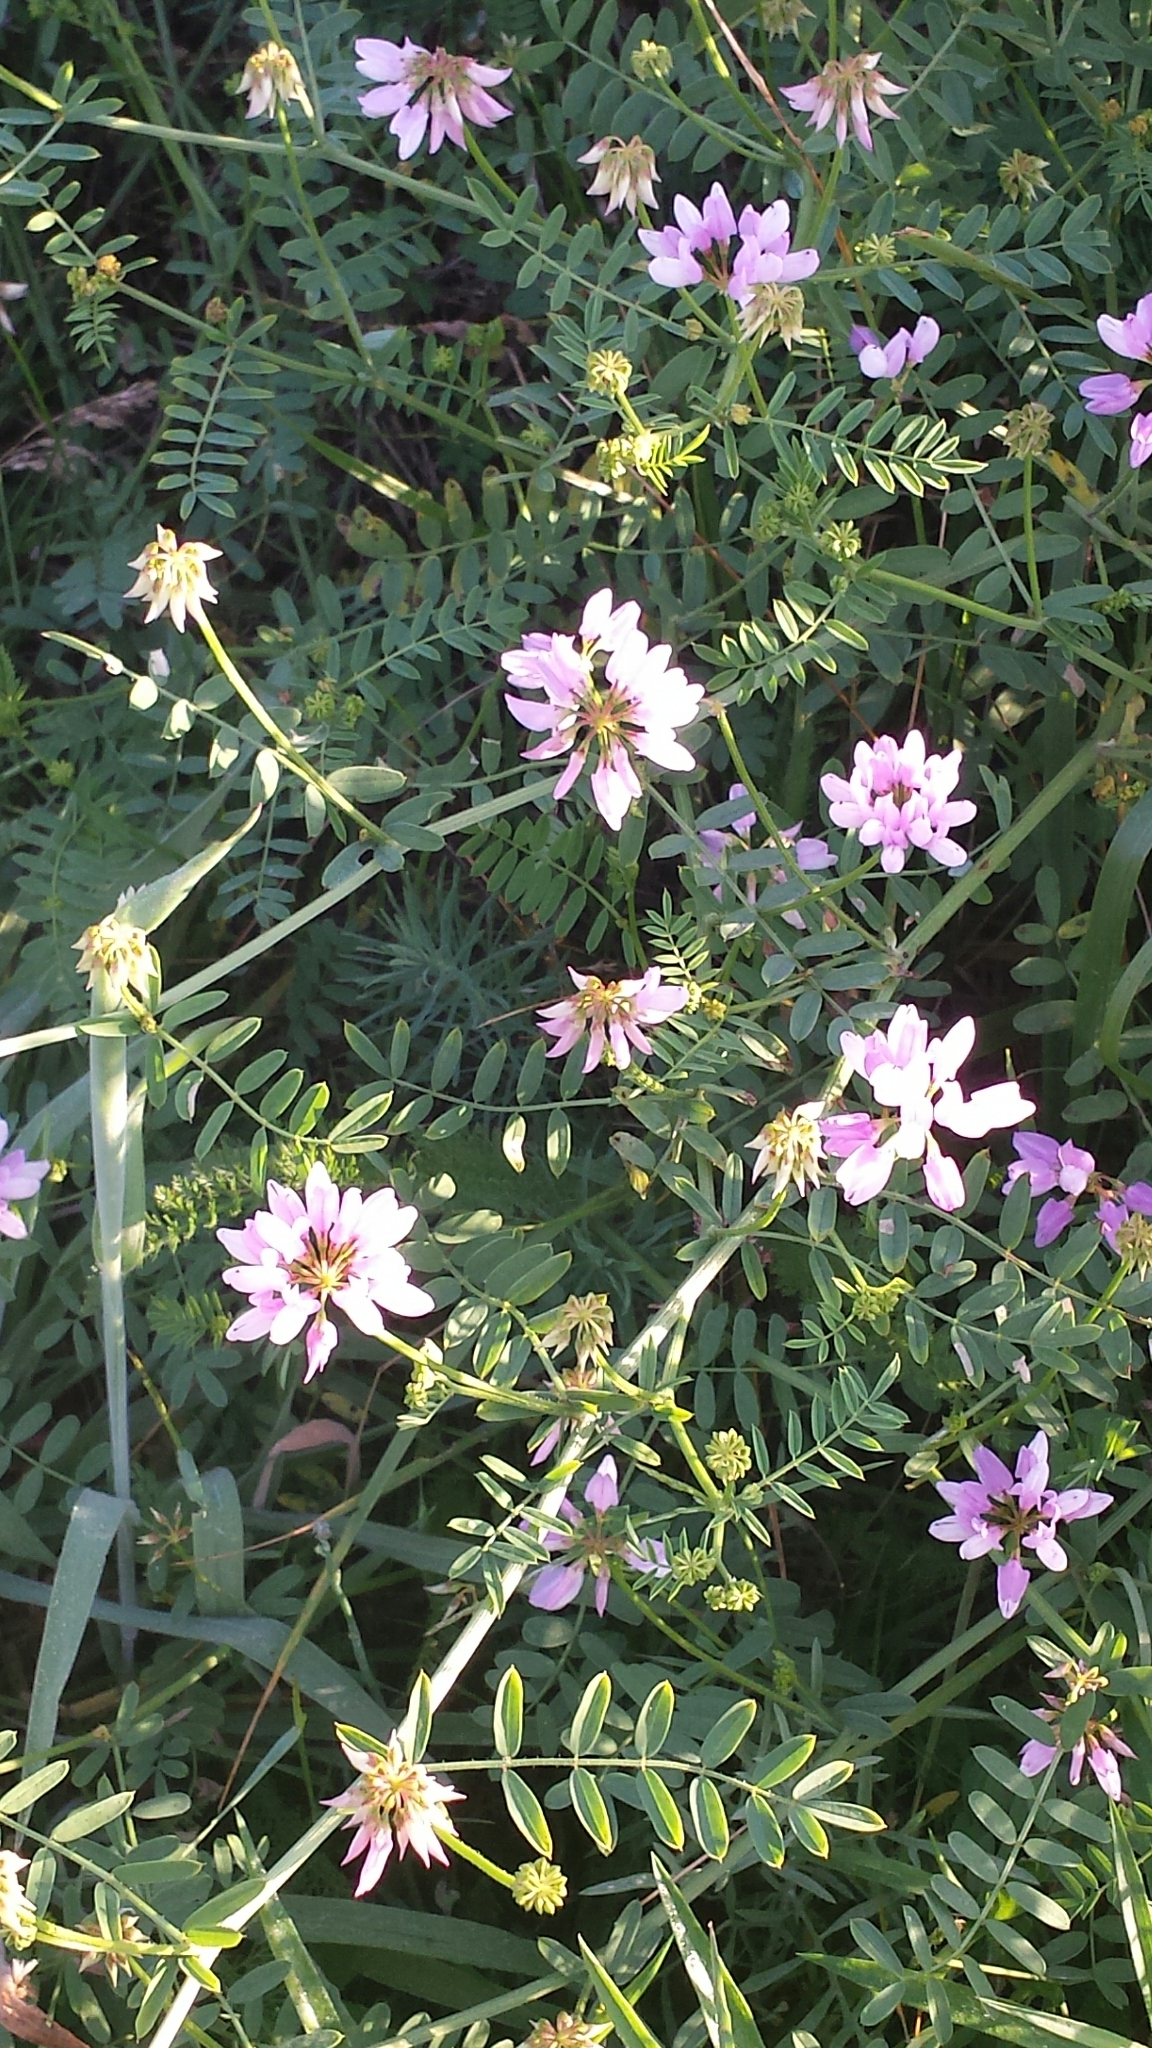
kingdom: Plantae
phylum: Tracheophyta
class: Magnoliopsida
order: Fabales
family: Fabaceae
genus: Coronilla
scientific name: Coronilla varia
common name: Crownvetch
